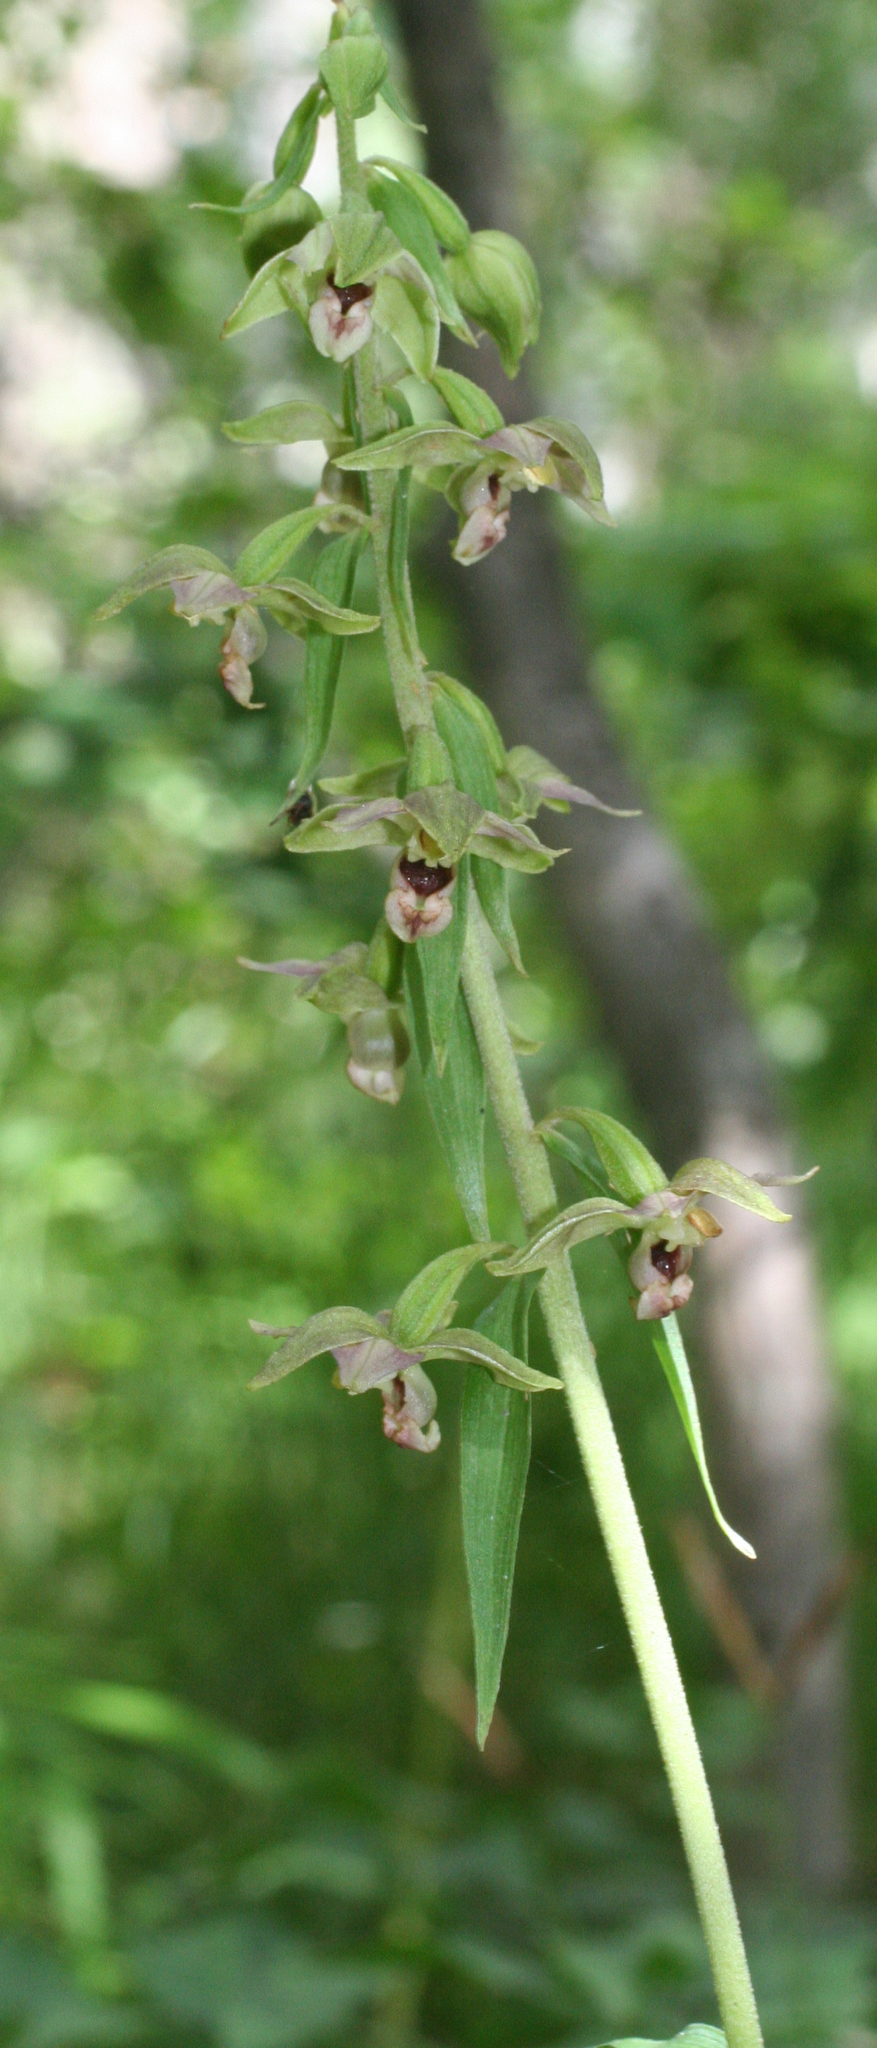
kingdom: Plantae
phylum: Tracheophyta
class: Liliopsida
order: Asparagales
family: Orchidaceae
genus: Epipactis
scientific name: Epipactis helleborine
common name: Broad-leaved helleborine
